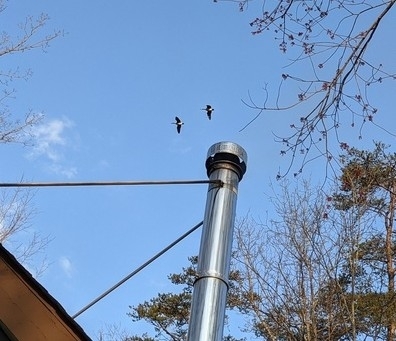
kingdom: Animalia
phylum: Chordata
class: Aves
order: Anseriformes
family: Anatidae
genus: Branta
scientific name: Branta canadensis
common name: Canada goose
